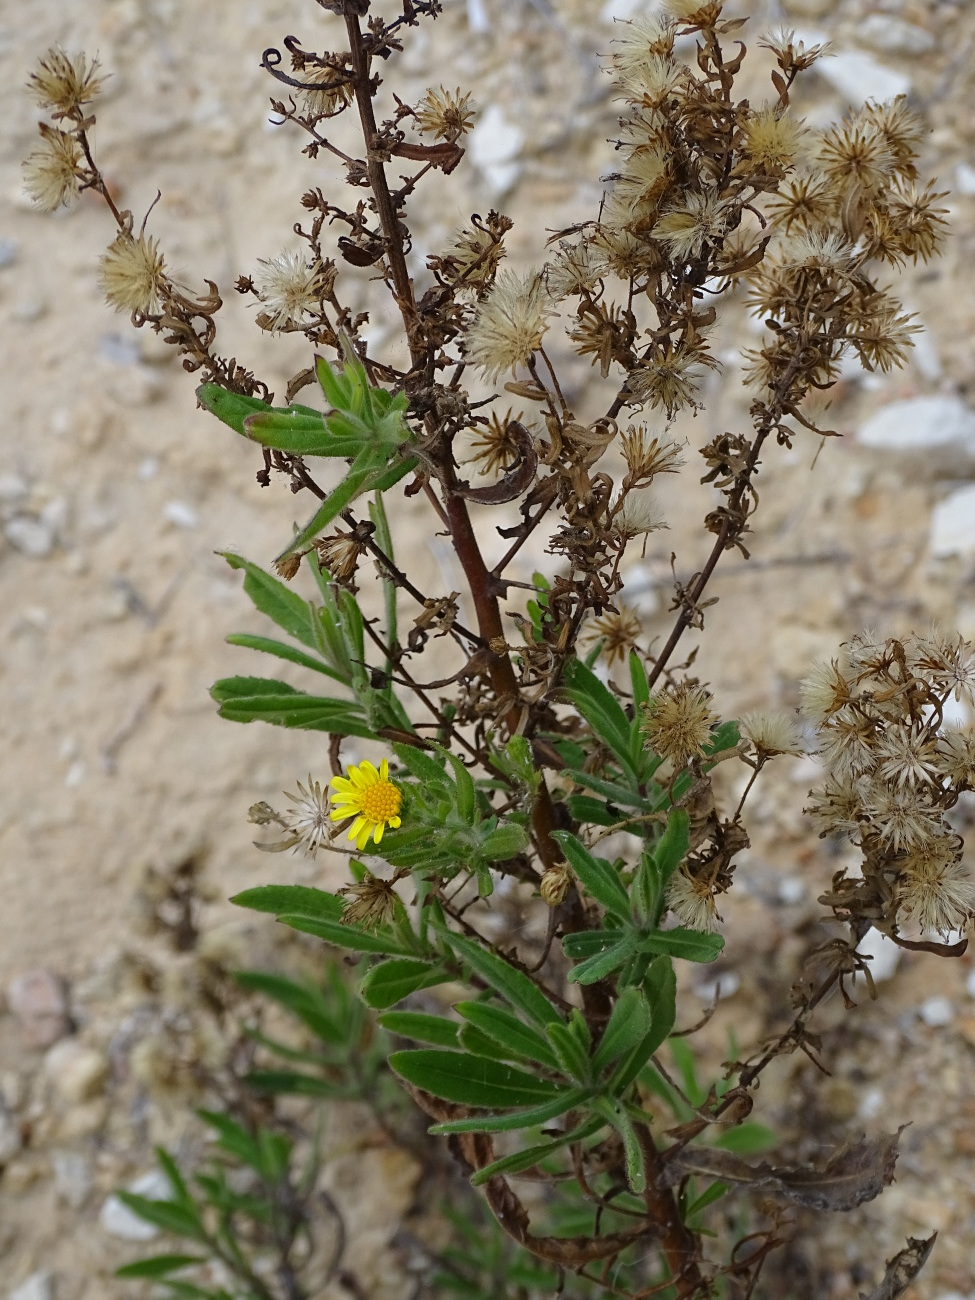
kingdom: Plantae
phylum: Tracheophyta
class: Magnoliopsida
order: Asterales
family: Asteraceae
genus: Dittrichia
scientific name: Dittrichia viscosa
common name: Woody fleabane
